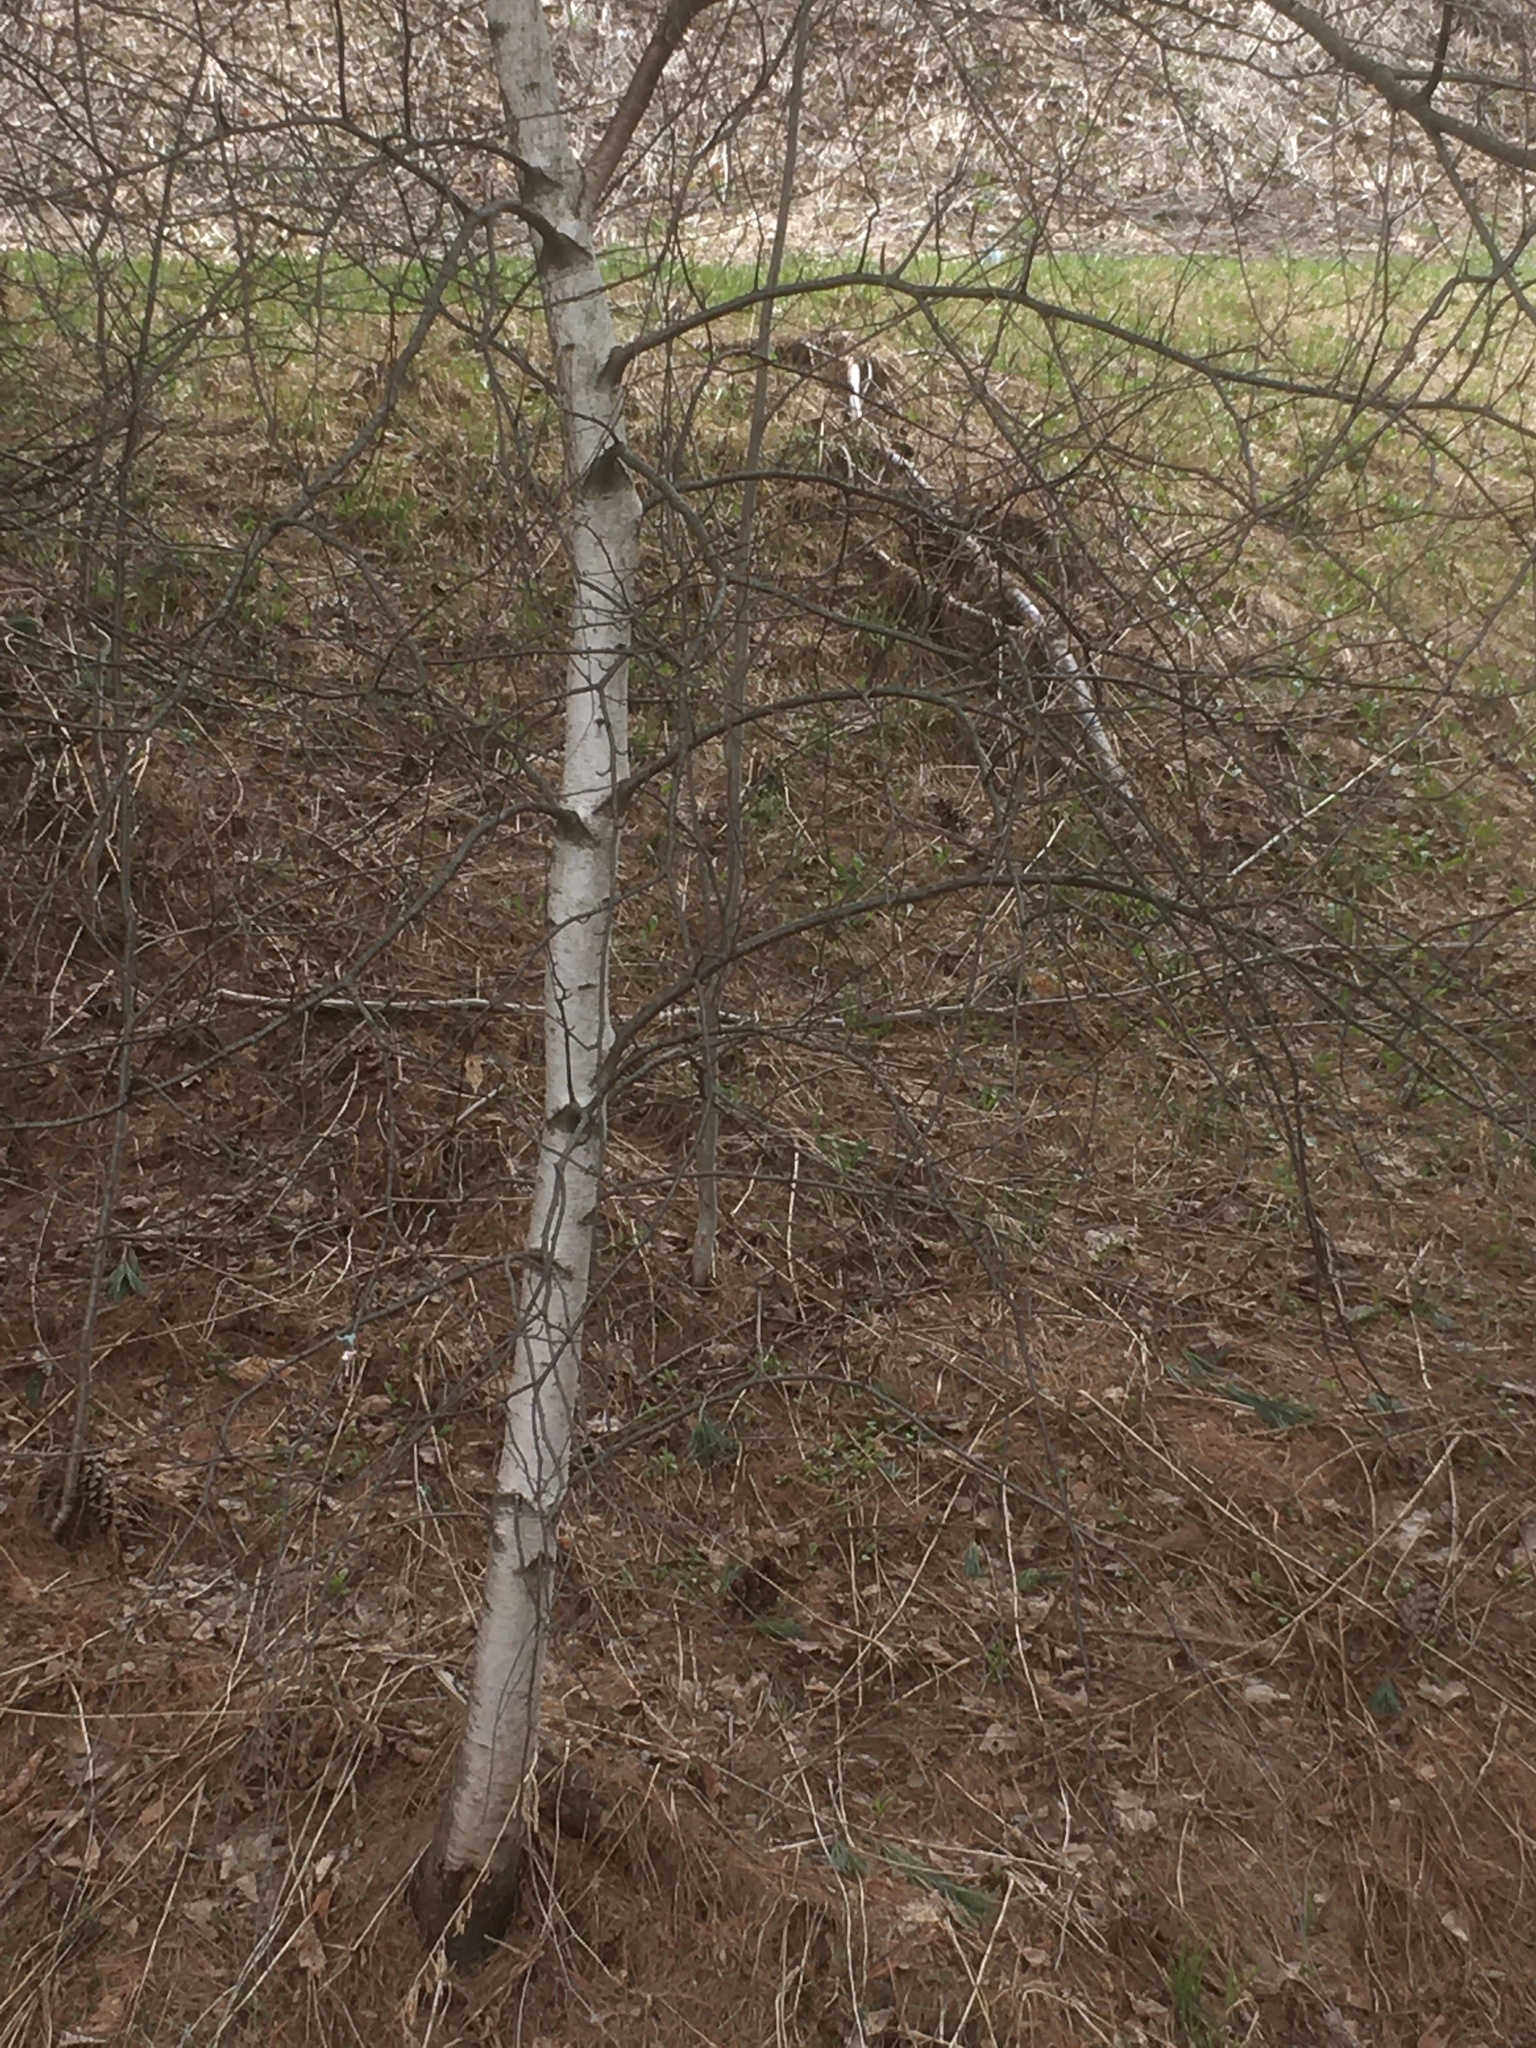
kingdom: Plantae
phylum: Tracheophyta
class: Magnoliopsida
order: Fagales
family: Betulaceae
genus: Betula
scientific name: Betula populifolia
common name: Fire birch
